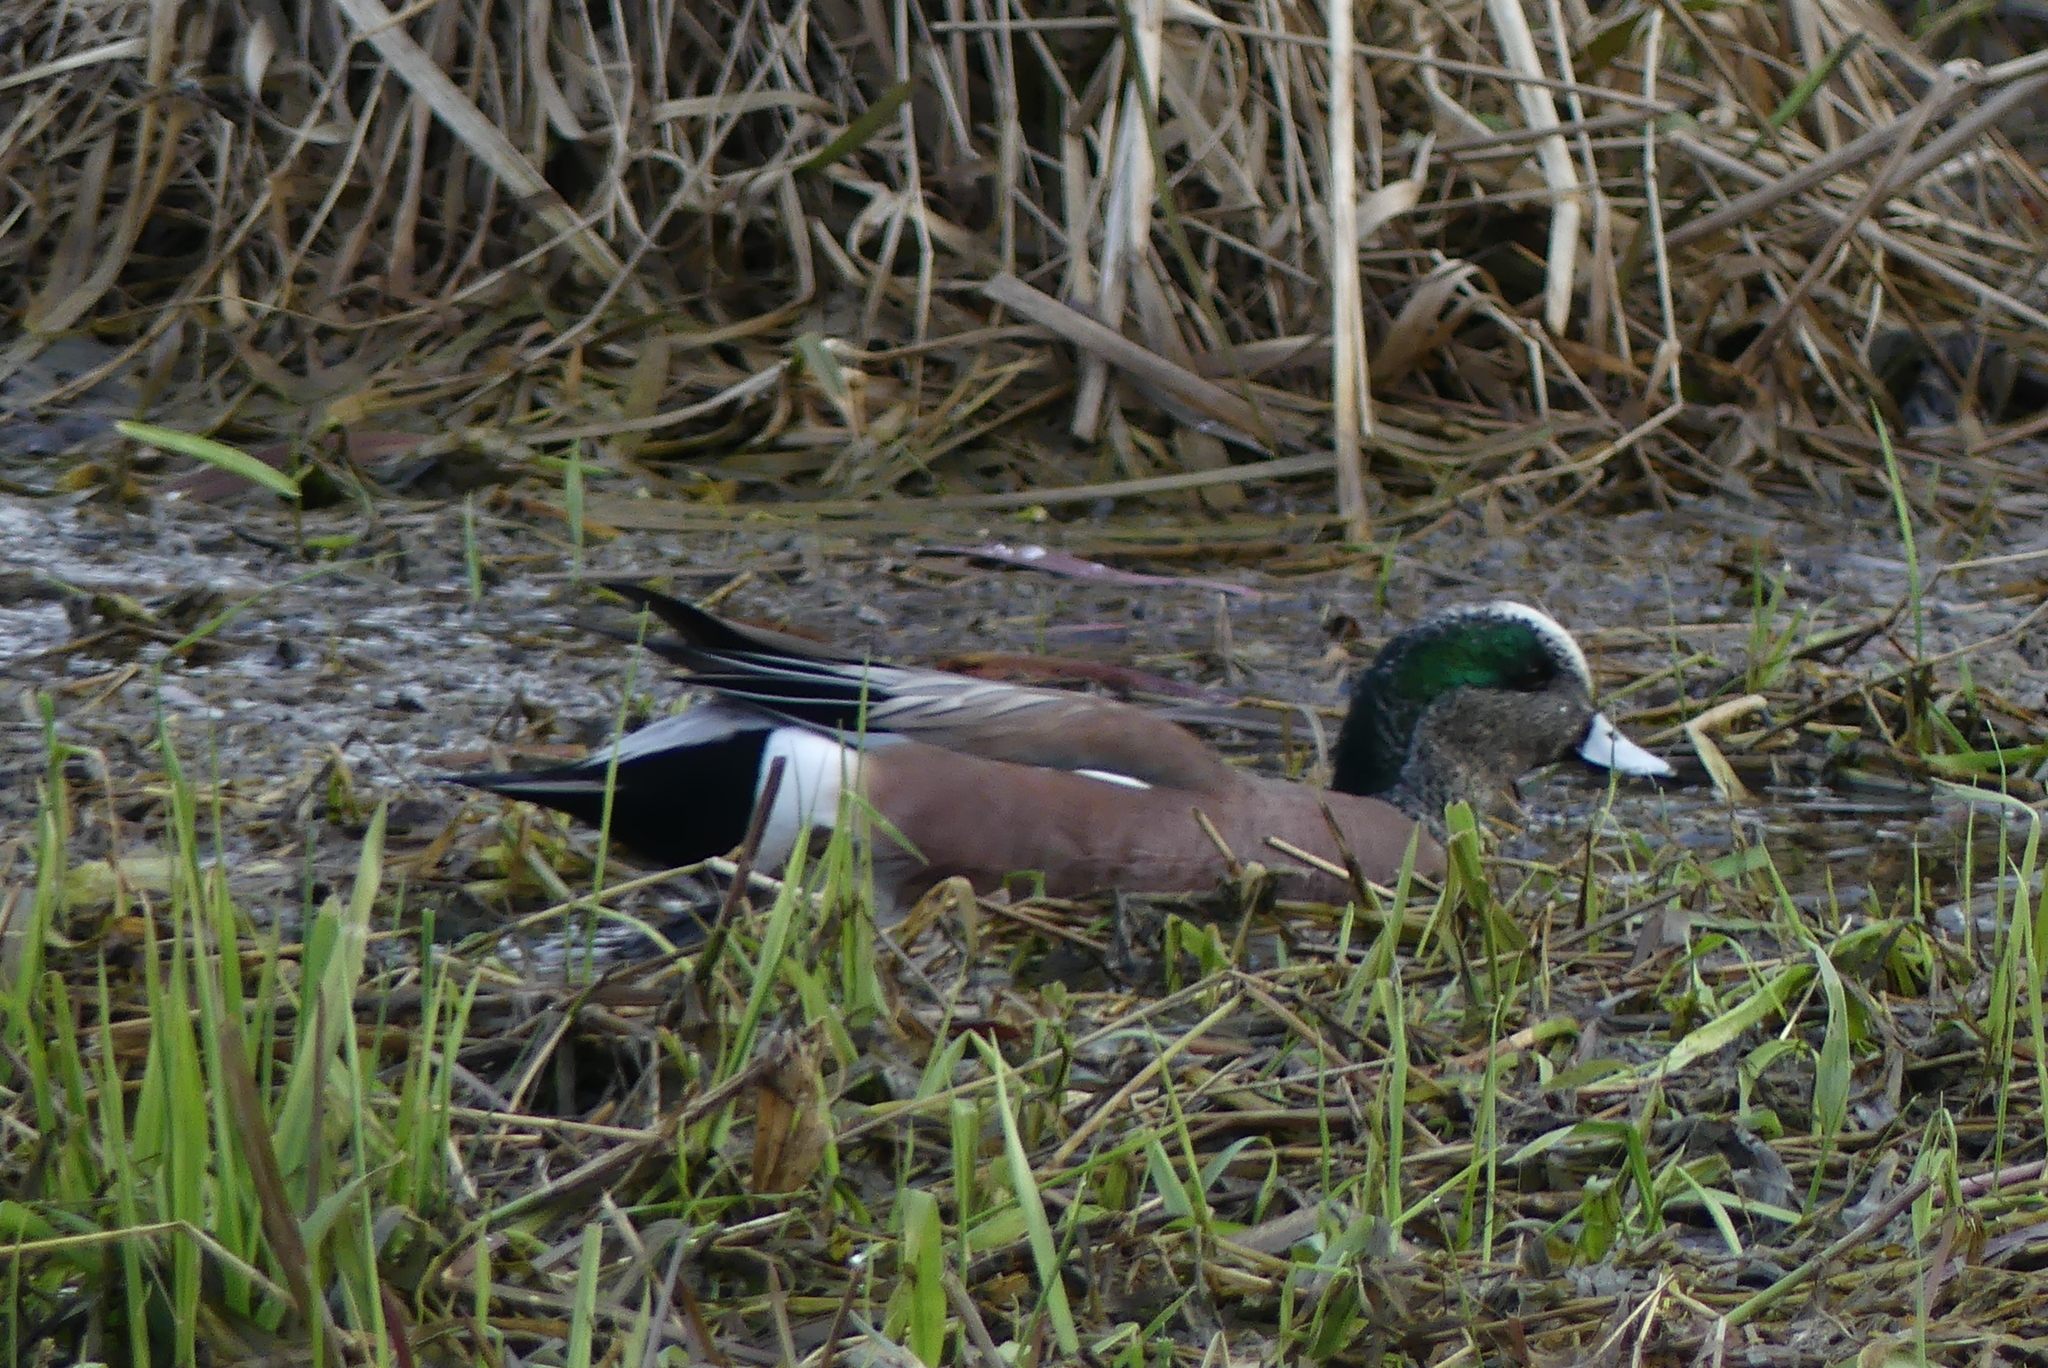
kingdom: Animalia
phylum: Chordata
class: Aves
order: Anseriformes
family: Anatidae
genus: Mareca
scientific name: Mareca americana
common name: American wigeon
